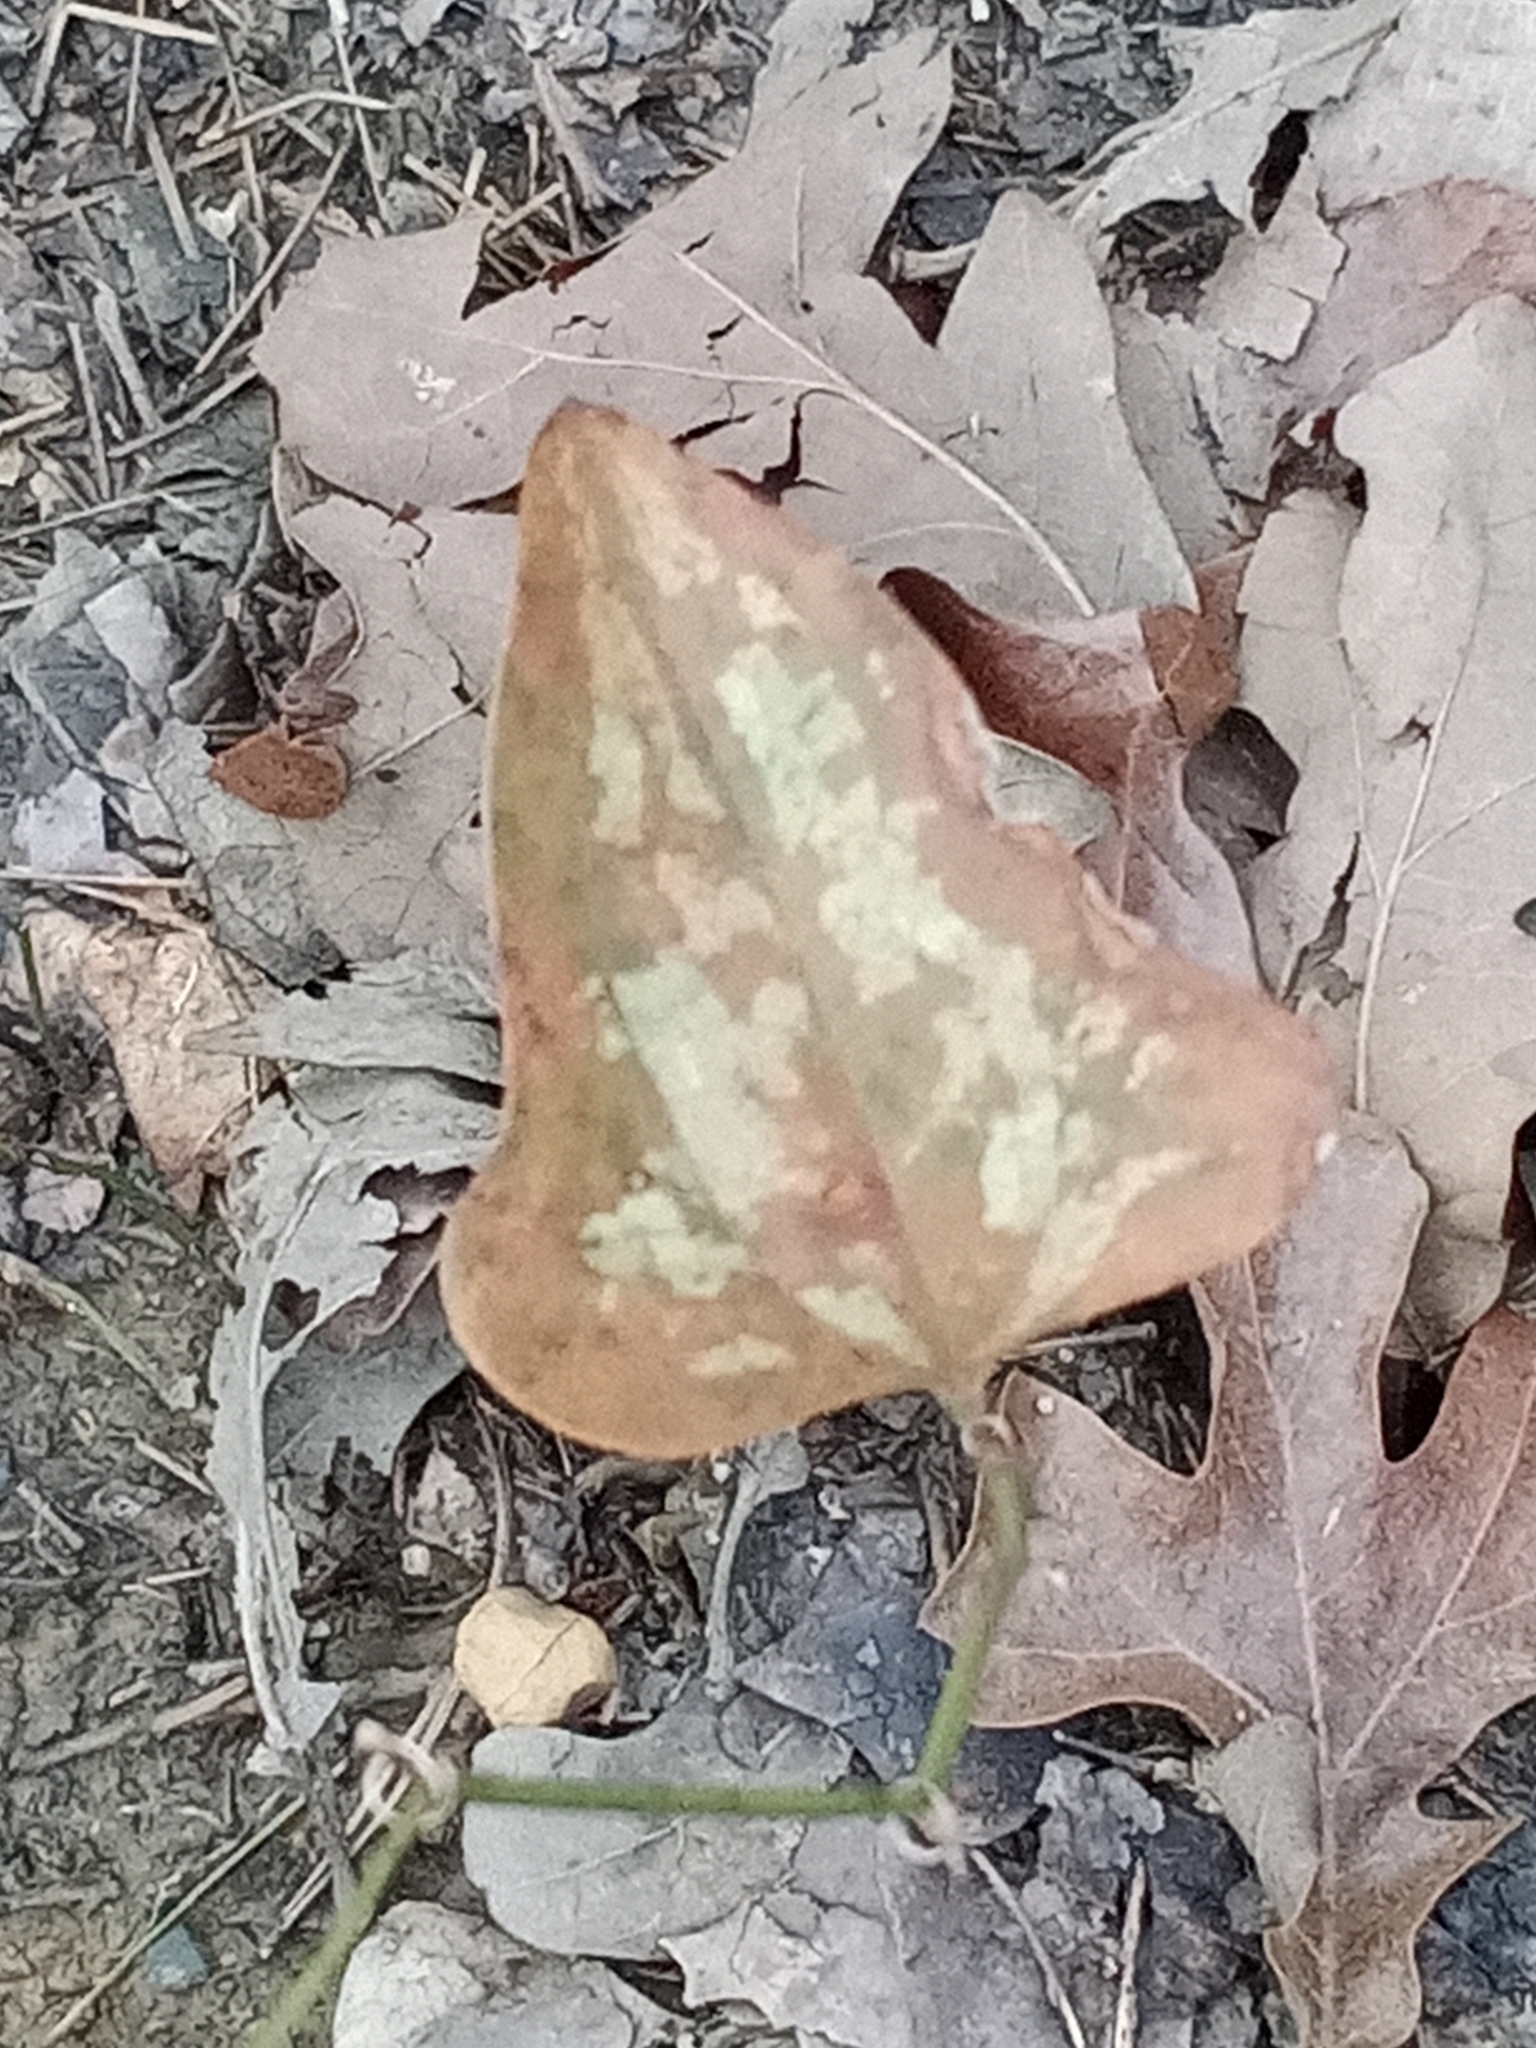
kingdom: Plantae
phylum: Tracheophyta
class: Liliopsida
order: Liliales
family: Smilacaceae
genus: Smilax
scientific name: Smilax bona-nox
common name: Catbrier
